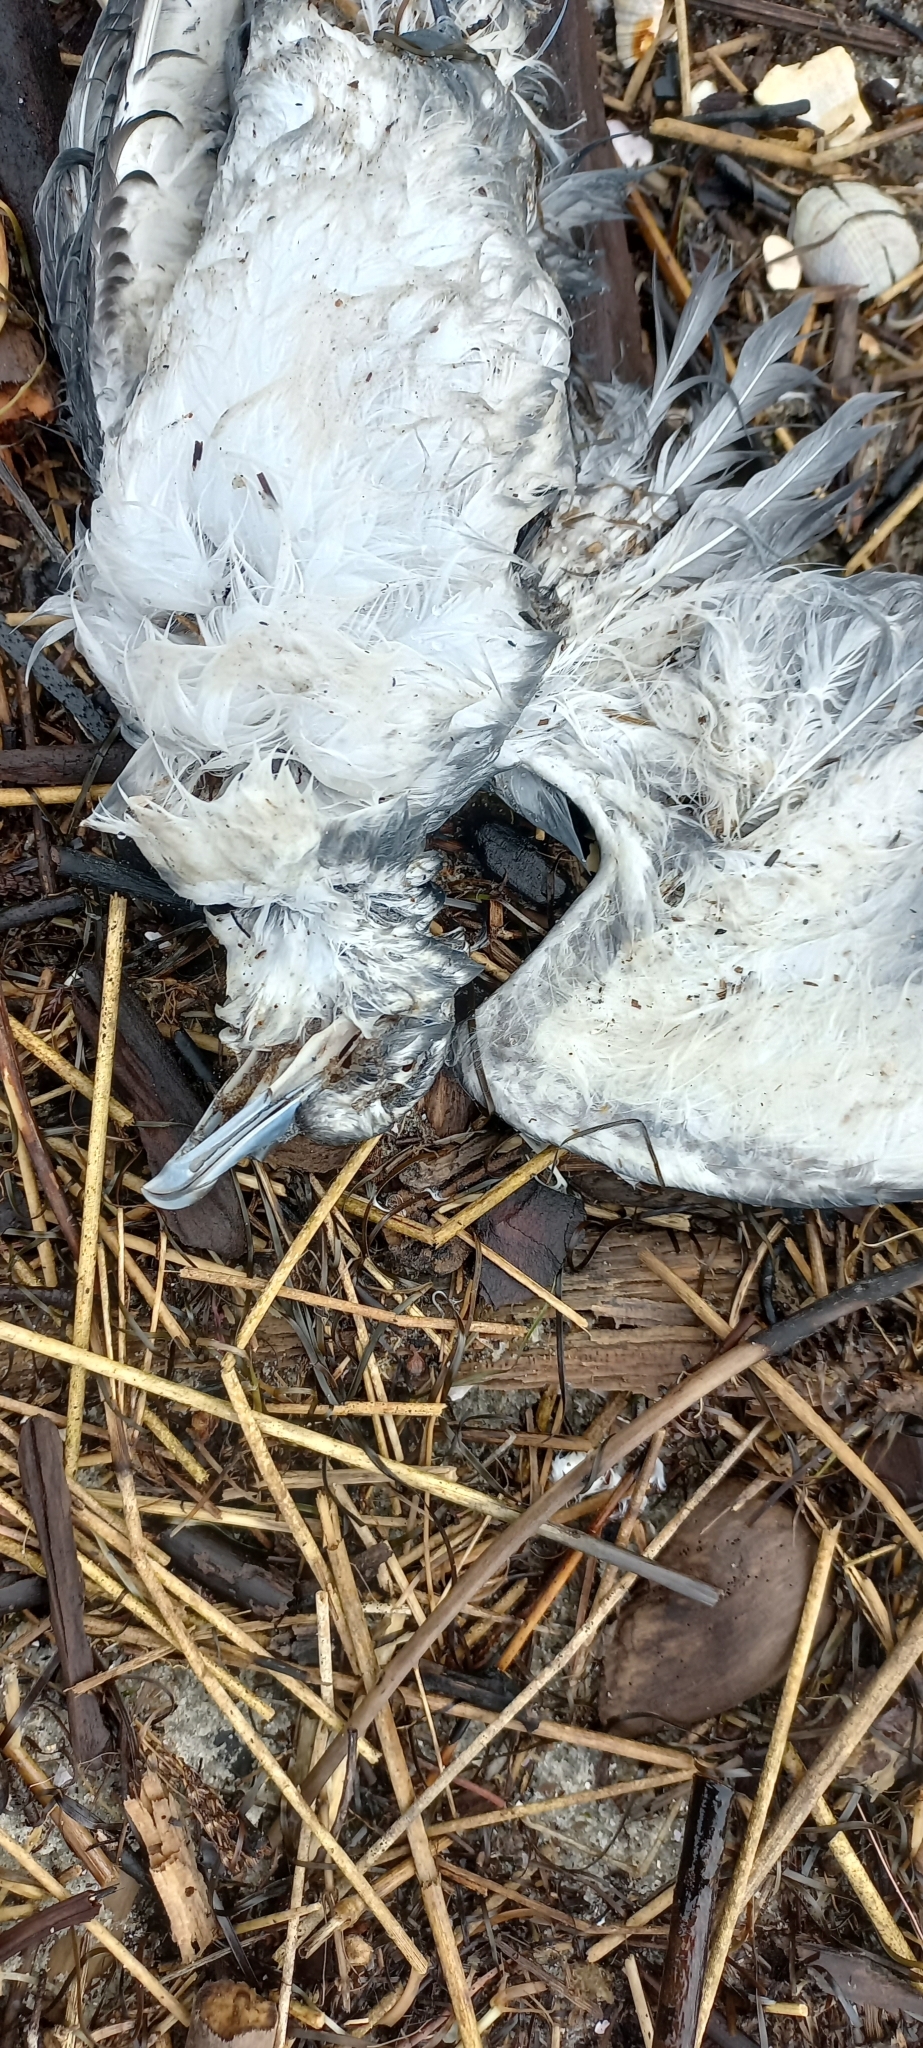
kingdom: Animalia
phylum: Chordata
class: Aves
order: Procellariiformes
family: Procellariidae
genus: Pachyptila
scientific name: Pachyptila turtur
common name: Fairy prion
